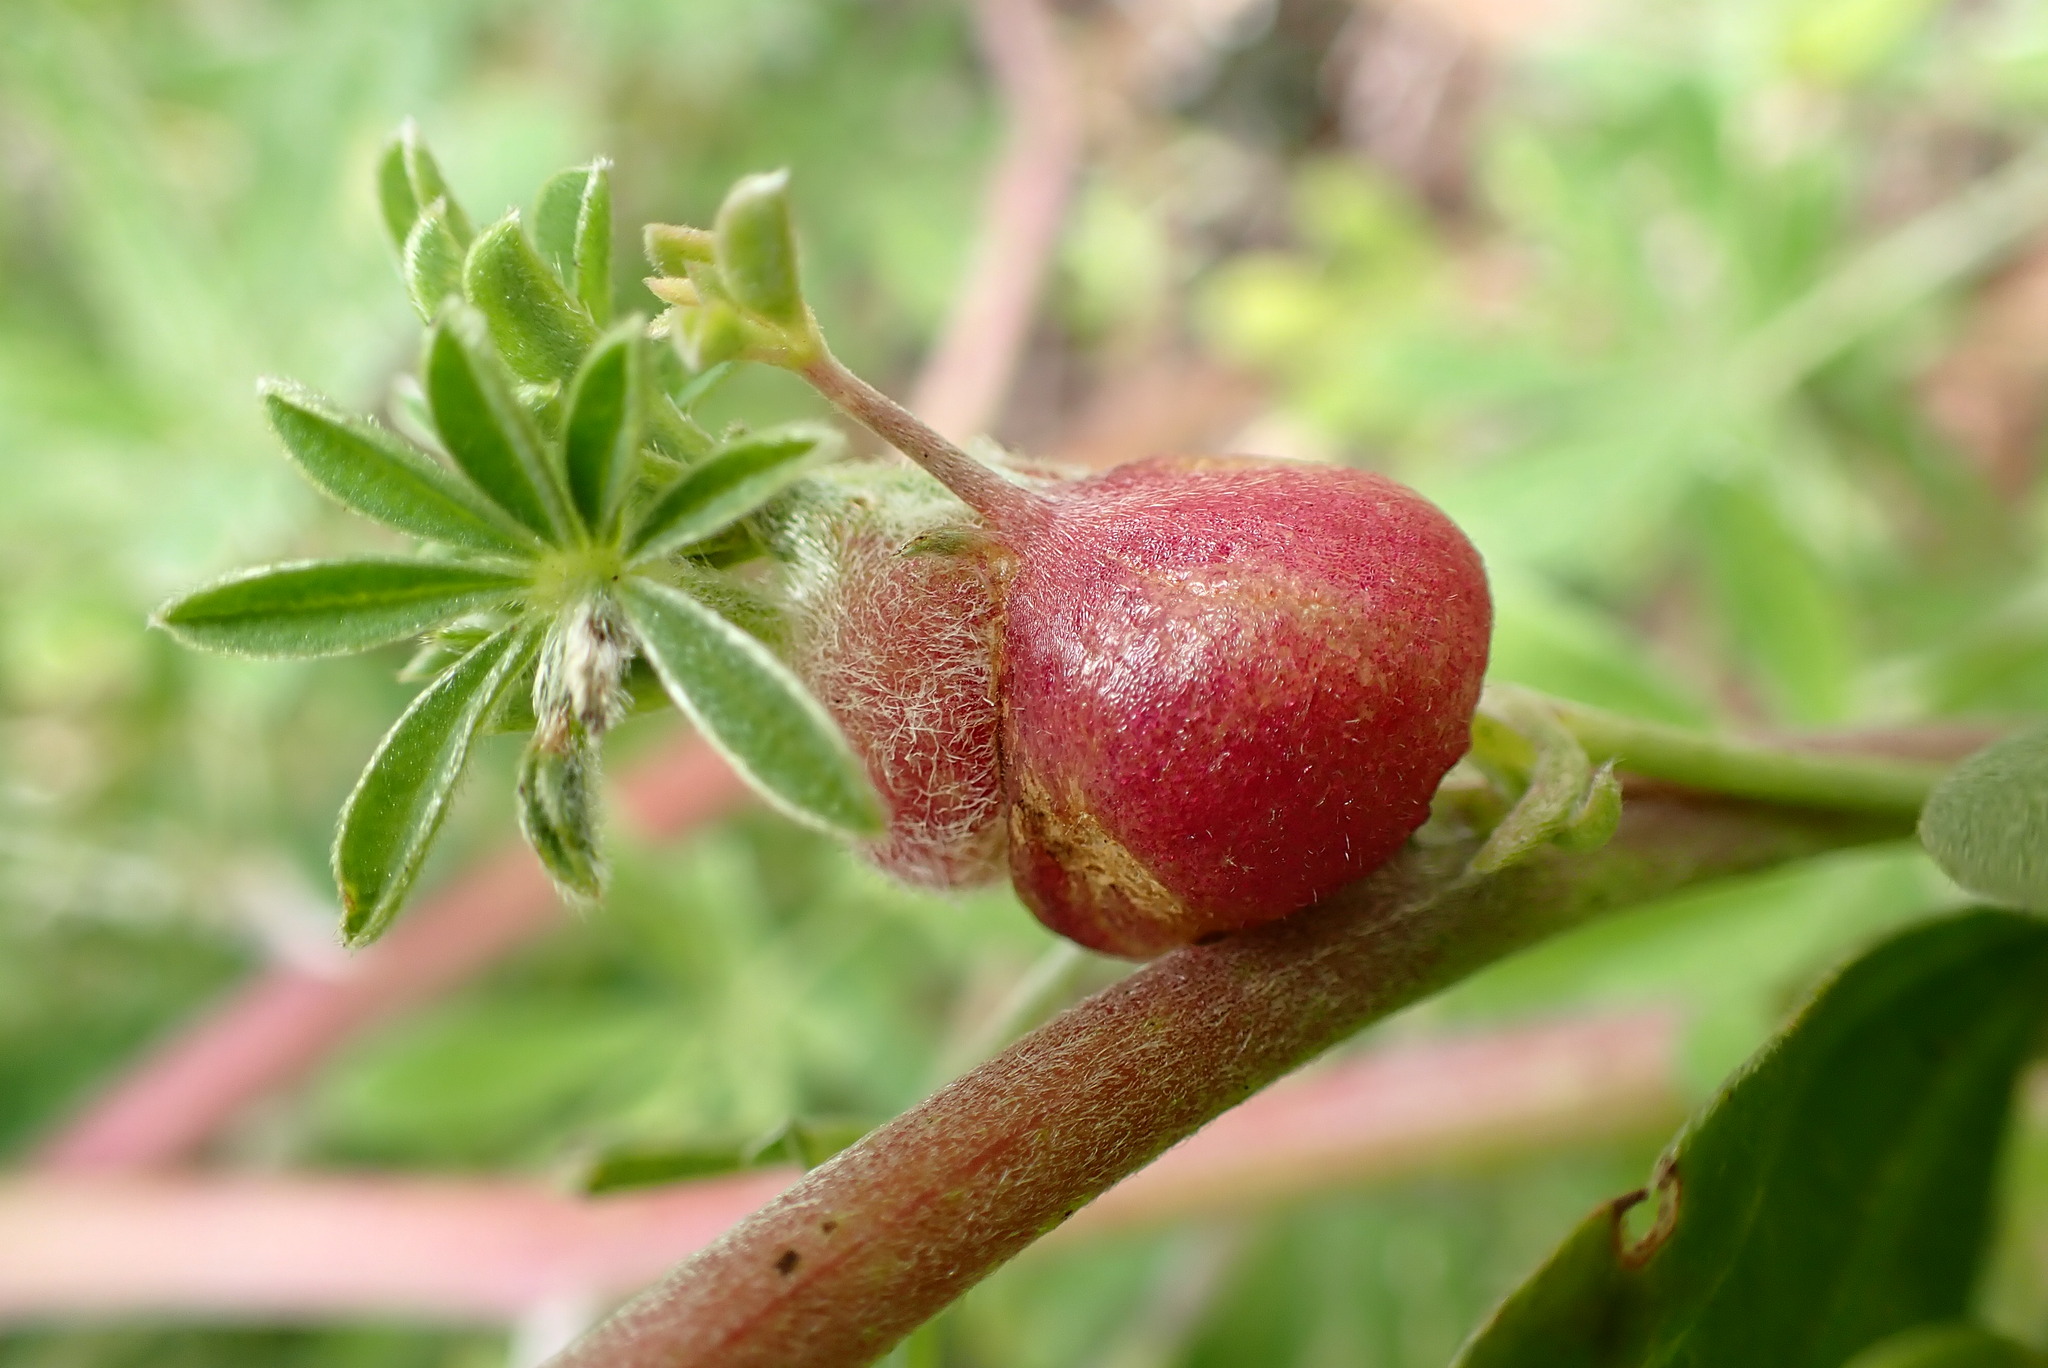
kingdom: Animalia
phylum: Arthropoda
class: Insecta
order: Diptera
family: Cecidomyiidae
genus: Dasineura
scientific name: Dasineura lupini
